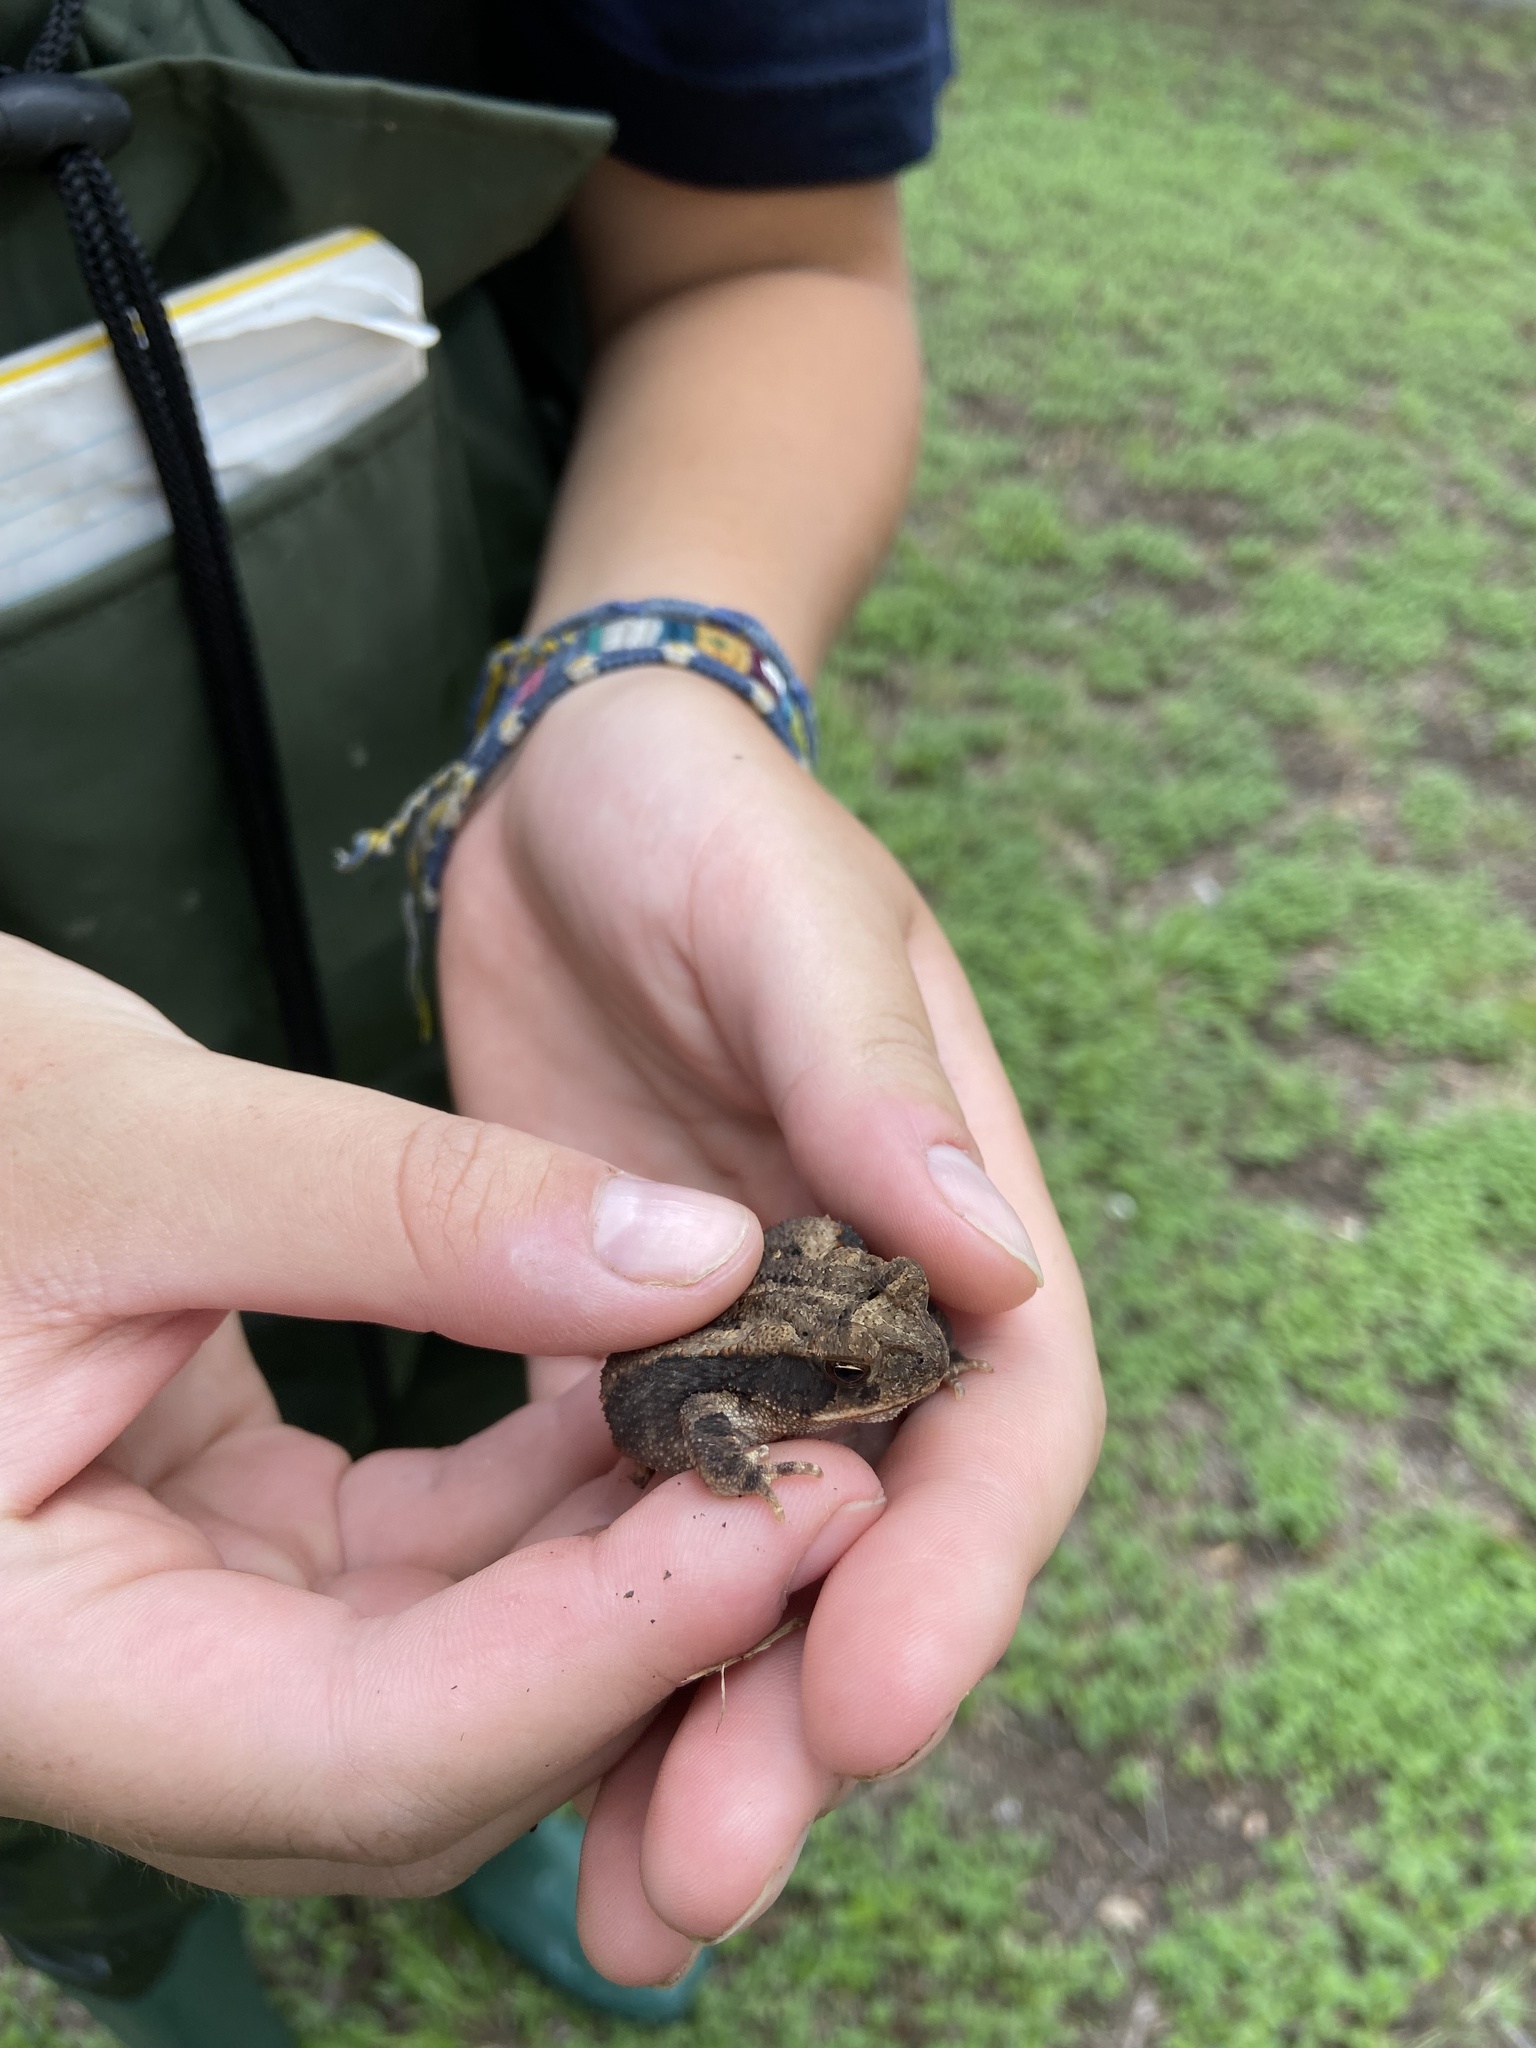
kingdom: Animalia
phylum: Chordata
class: Amphibia
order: Anura
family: Bufonidae
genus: Incilius
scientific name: Incilius nebulifer
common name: Gulf coast toad
